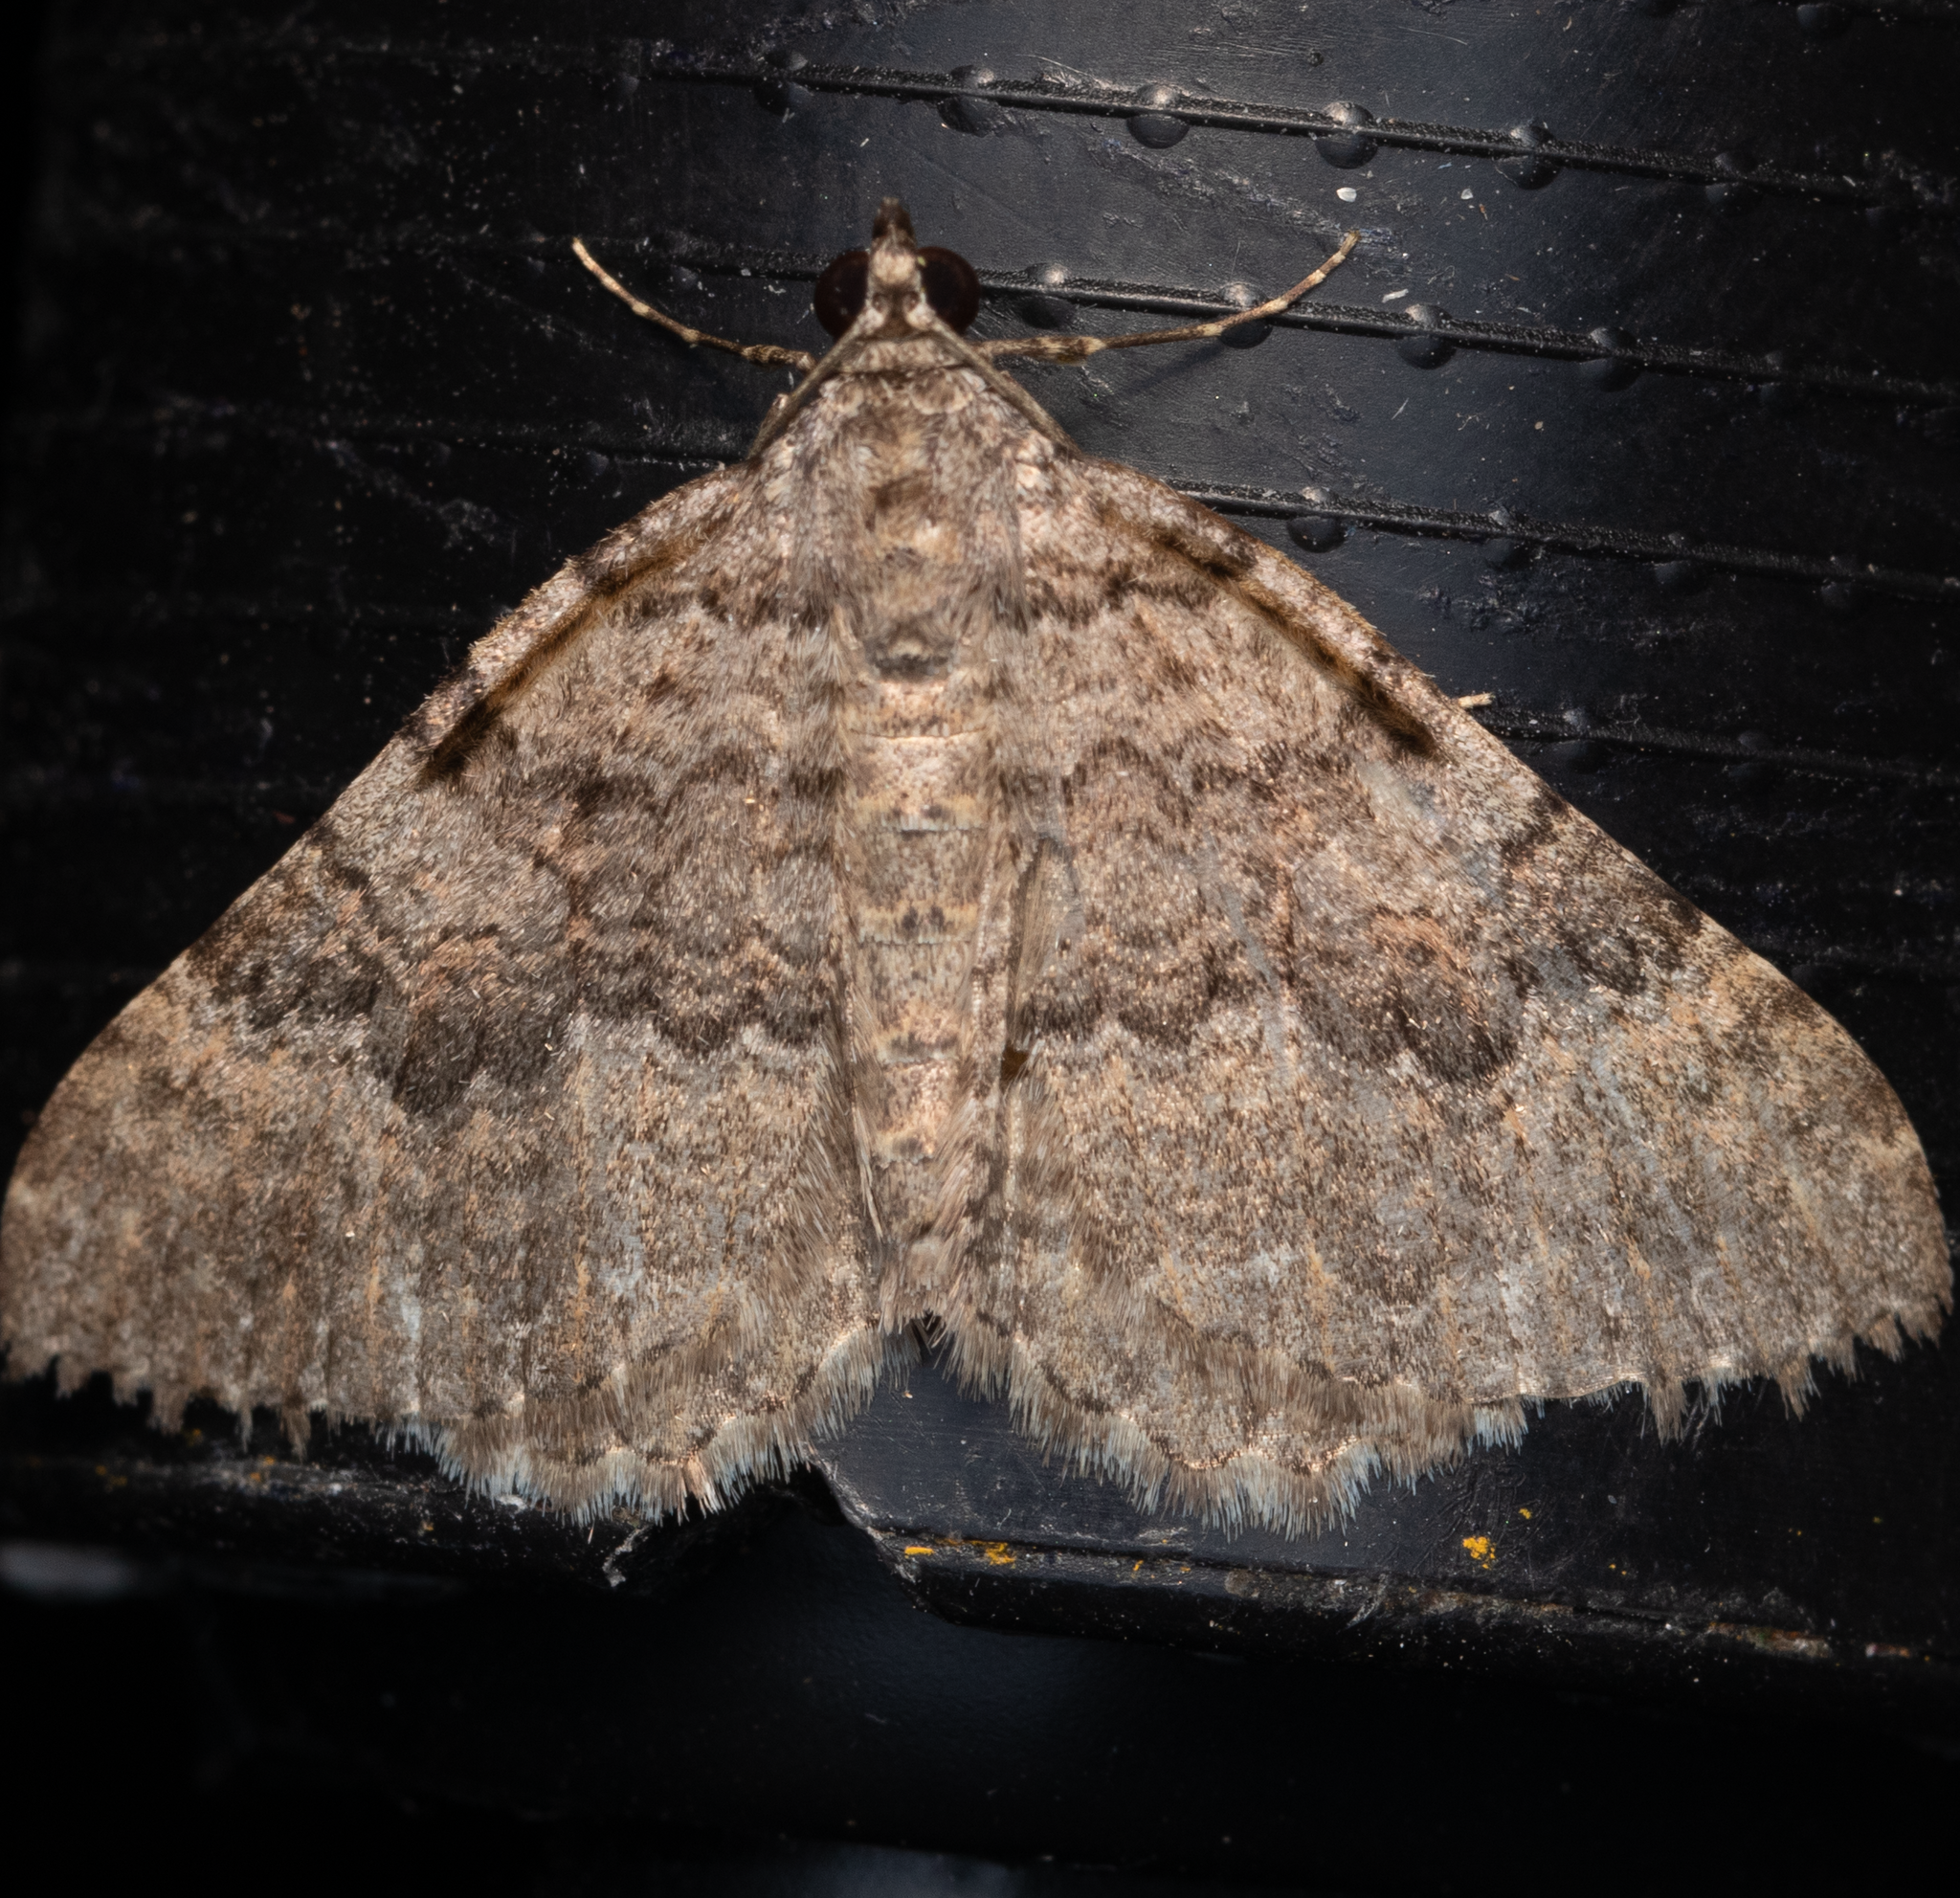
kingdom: Animalia
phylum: Arthropoda
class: Insecta
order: Lepidoptera
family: Geometridae
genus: Archirhoe
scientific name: Archirhoe neomexicana
